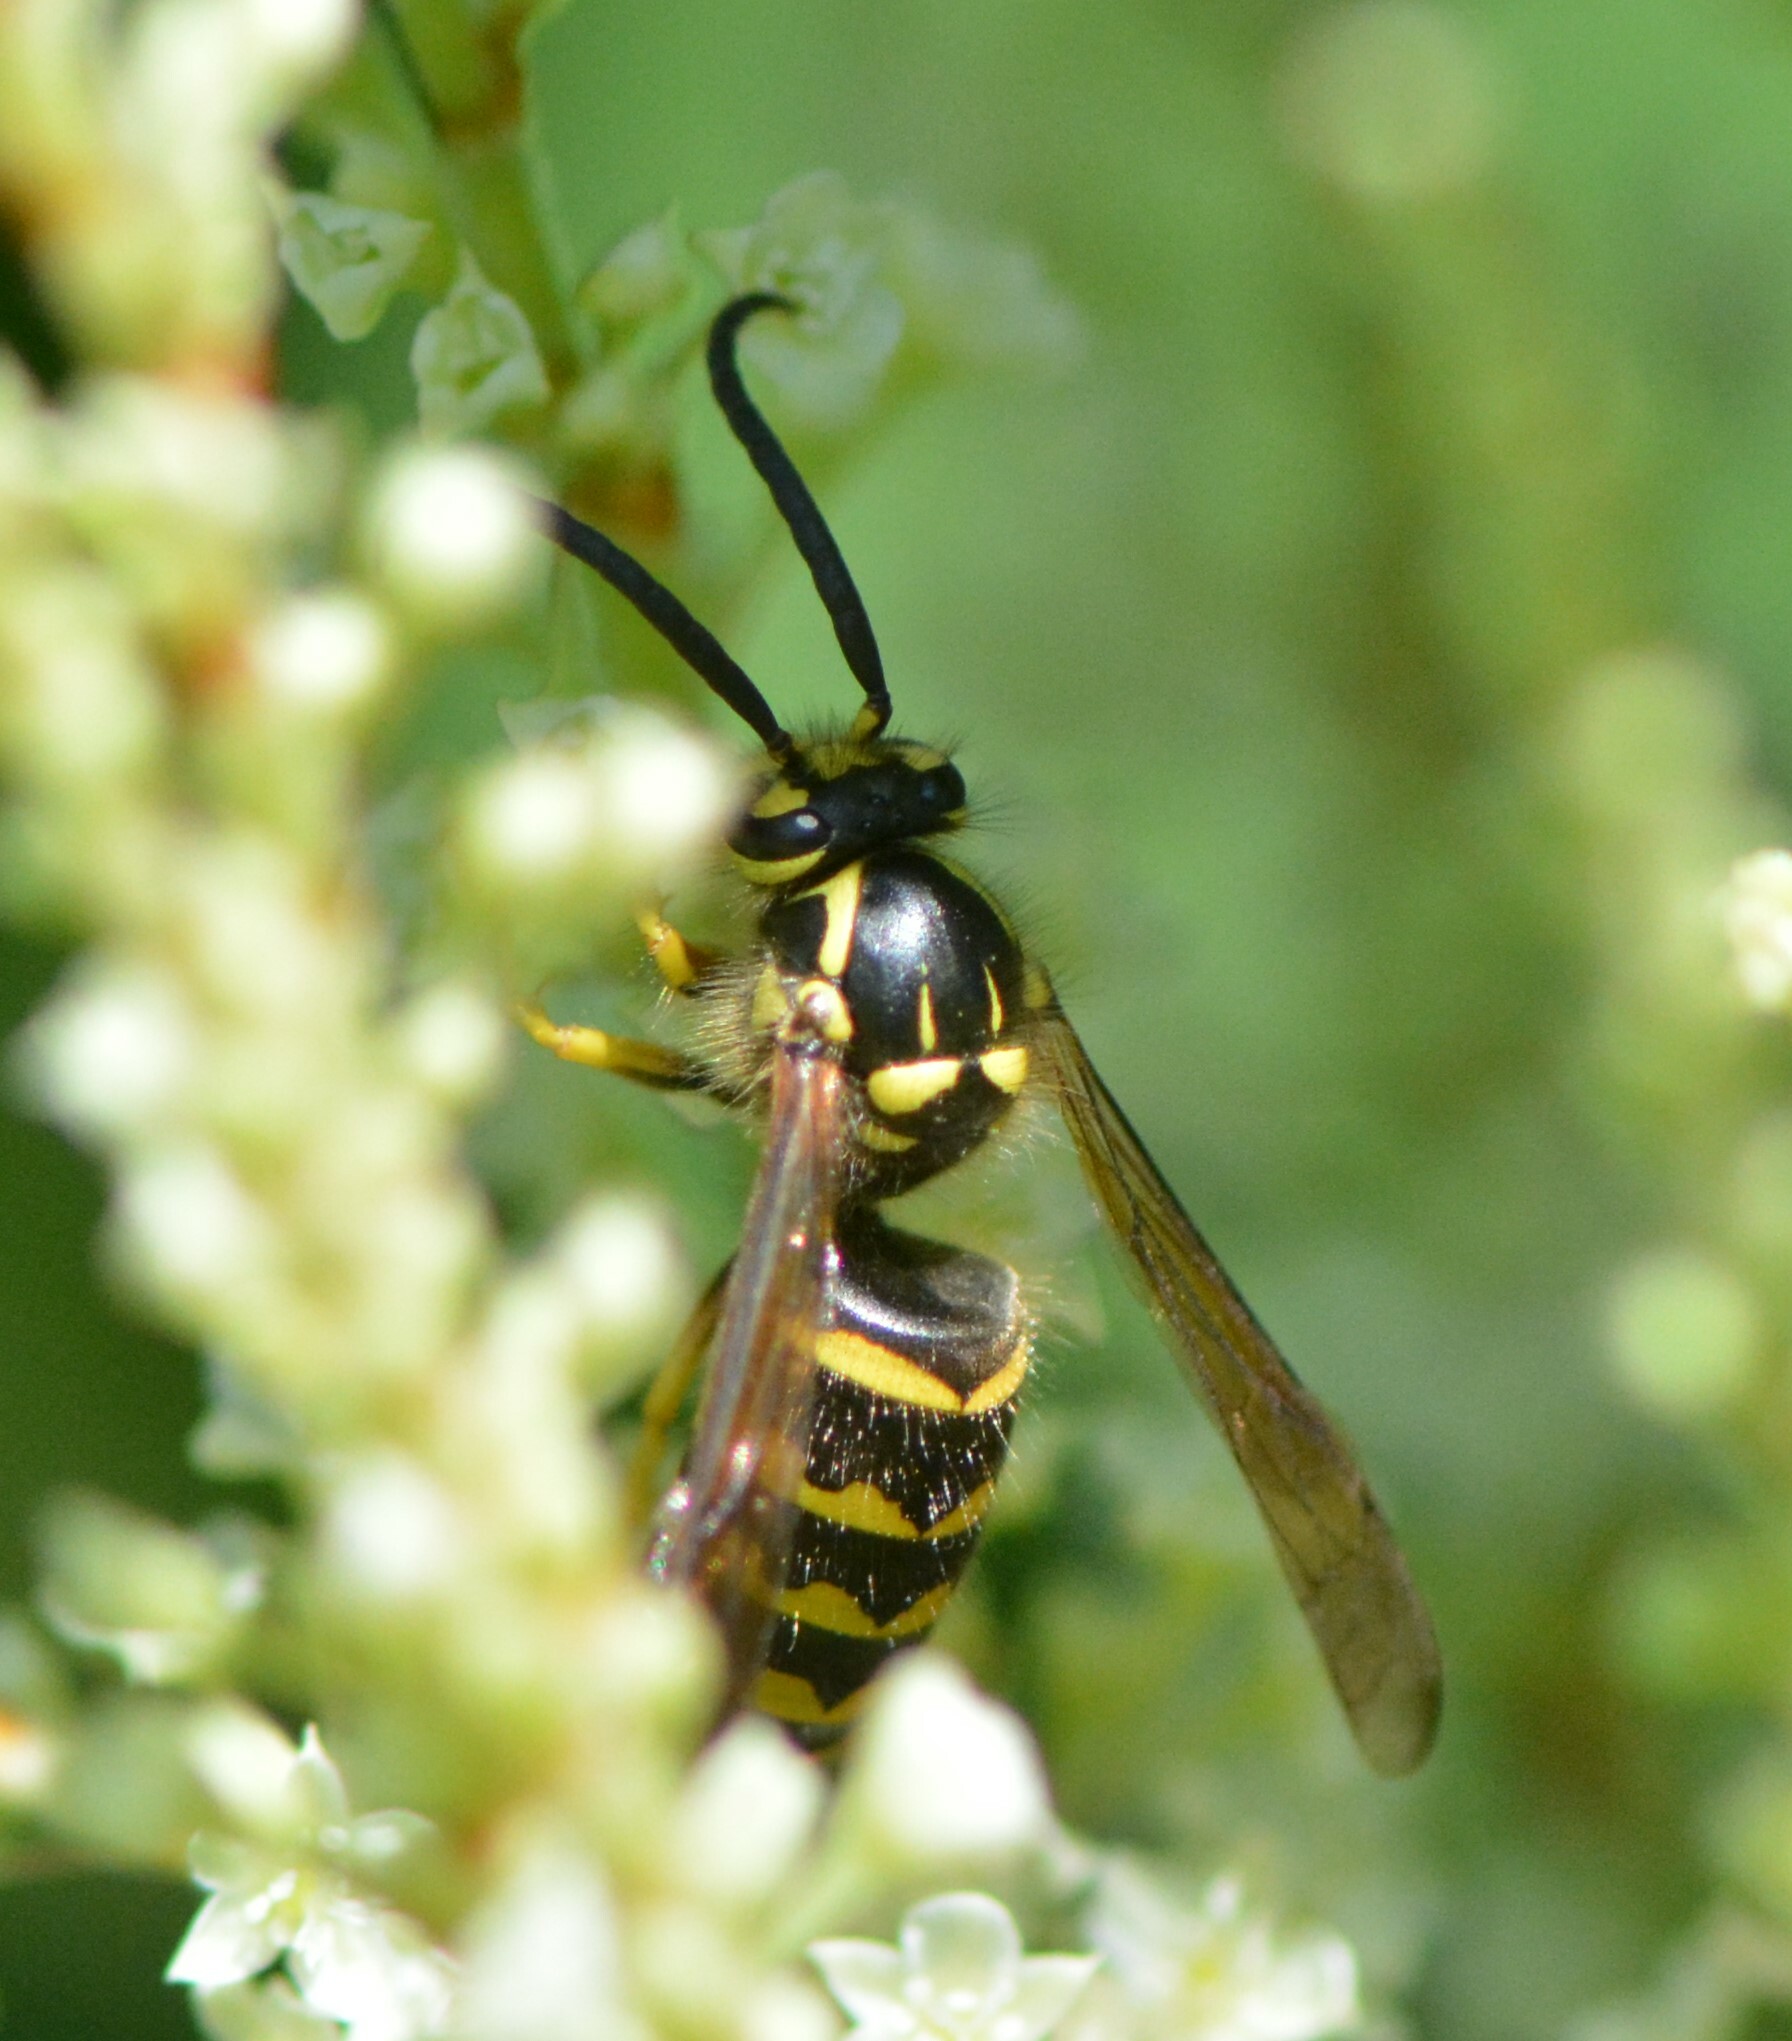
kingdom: Animalia
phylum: Arthropoda
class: Insecta
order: Hymenoptera
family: Vespidae
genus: Dolichovespula
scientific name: Dolichovespula arenaria
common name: Aerial yellowjacket
